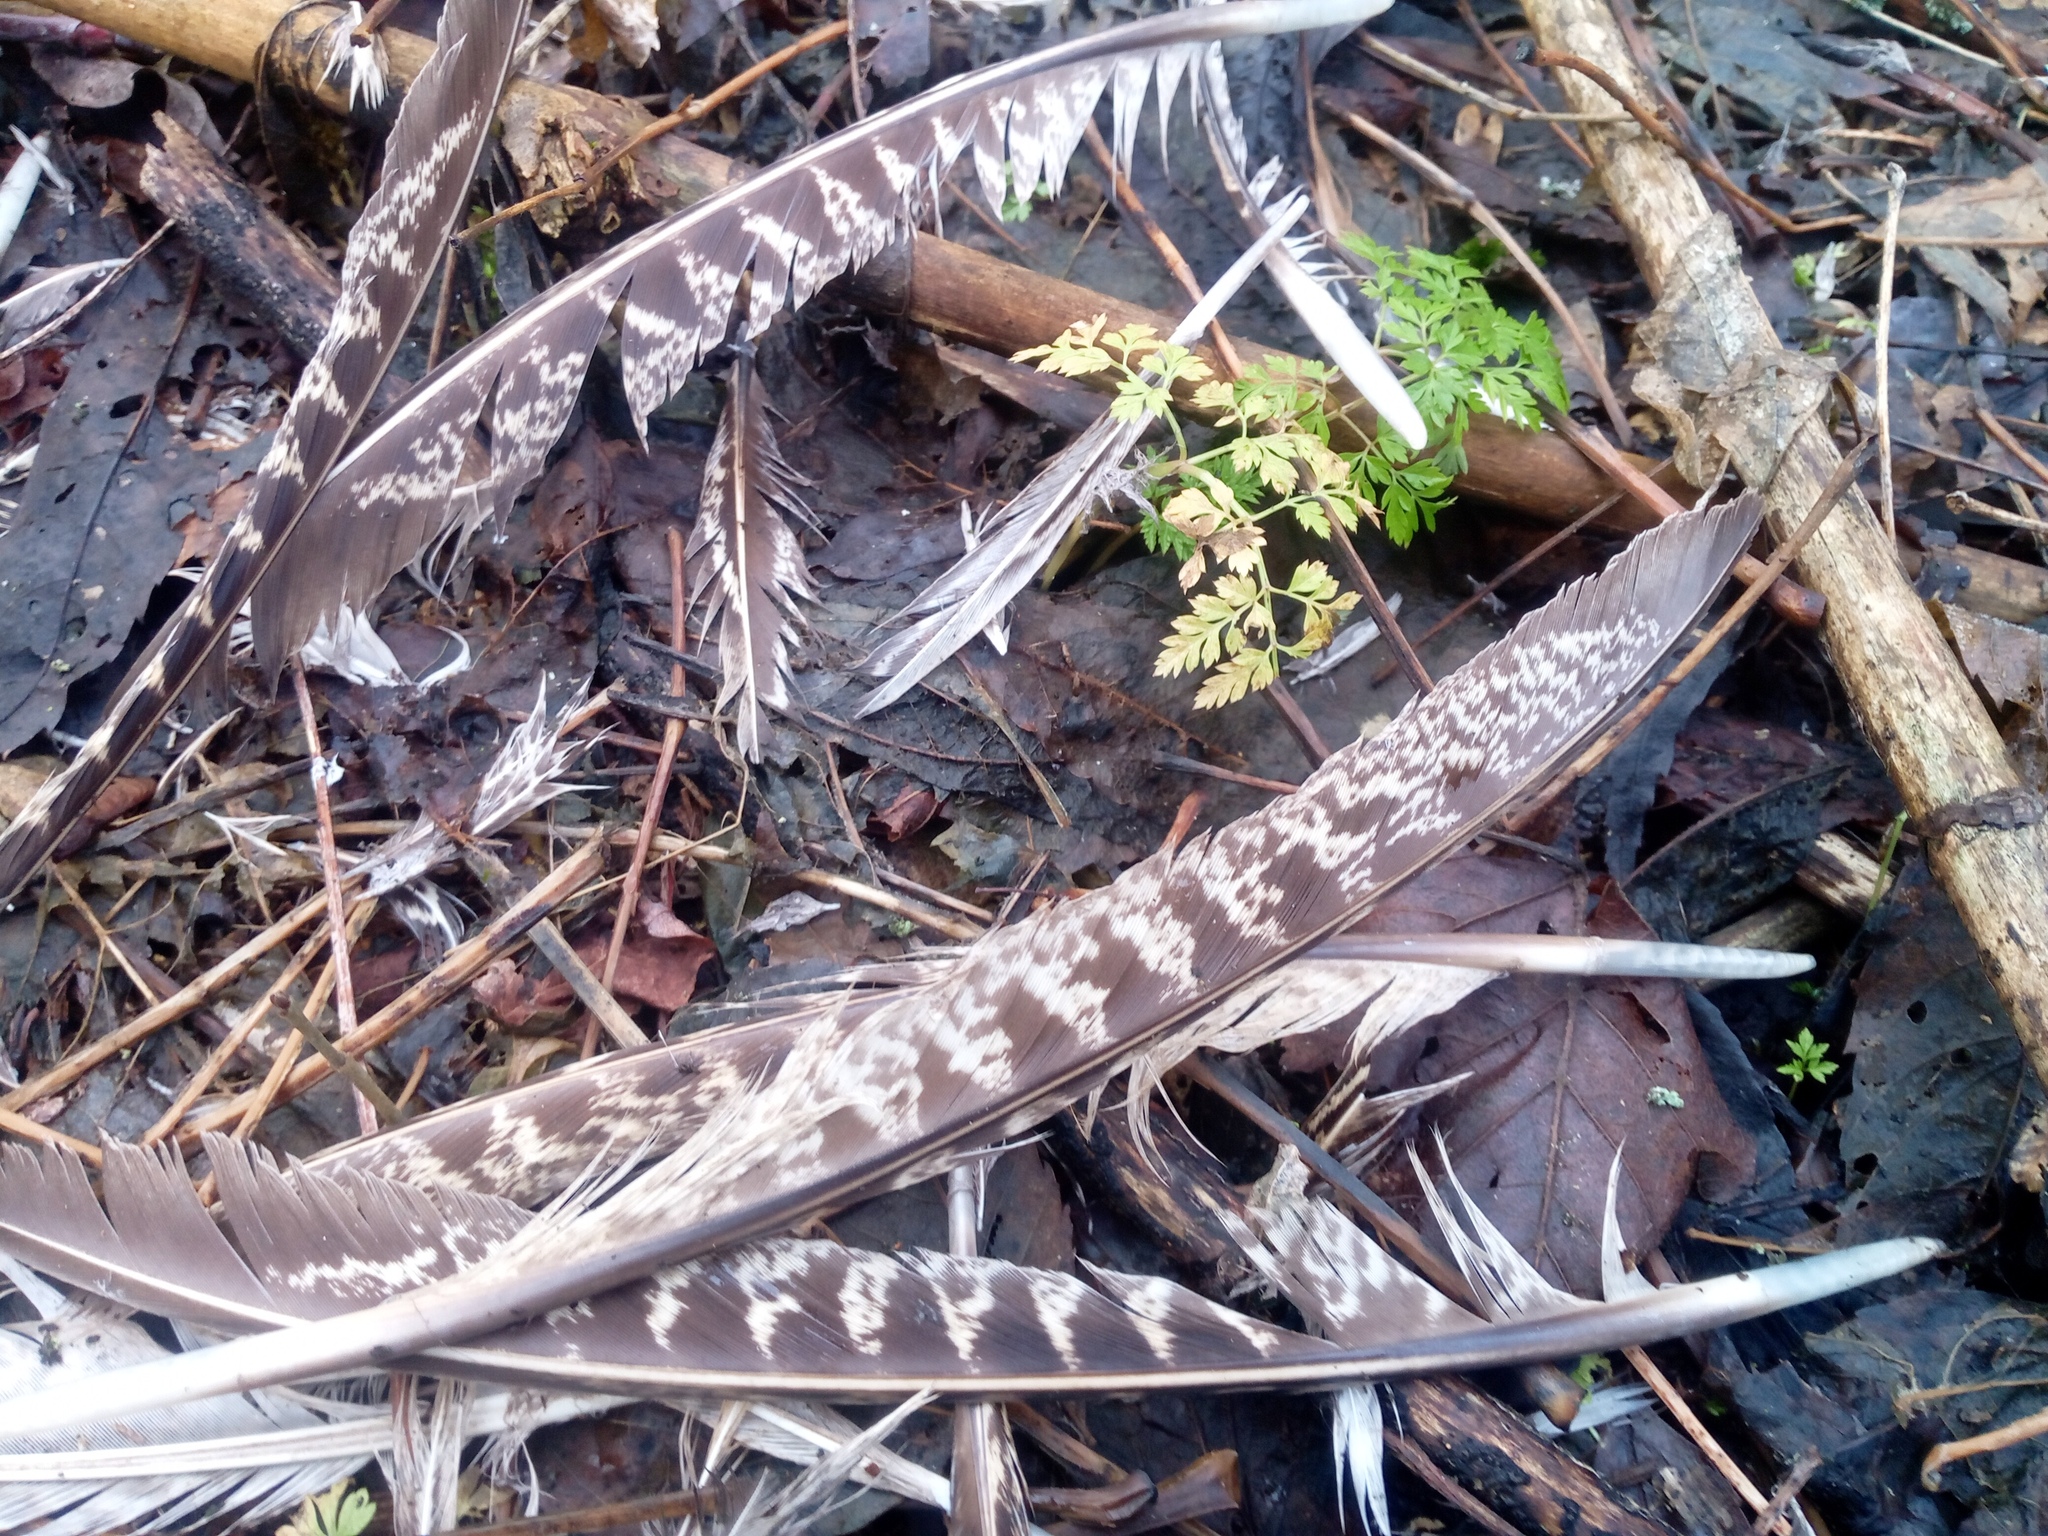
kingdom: Animalia
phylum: Chordata
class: Aves
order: Galliformes
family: Phasianidae
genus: Phasianus
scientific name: Phasianus colchicus
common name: Common pheasant
